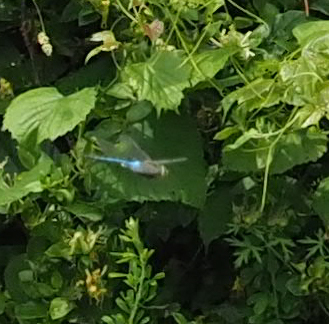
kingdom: Animalia
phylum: Arthropoda
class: Insecta
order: Odonata
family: Aeshnidae
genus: Anax
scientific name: Anax junius
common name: Common green darner
